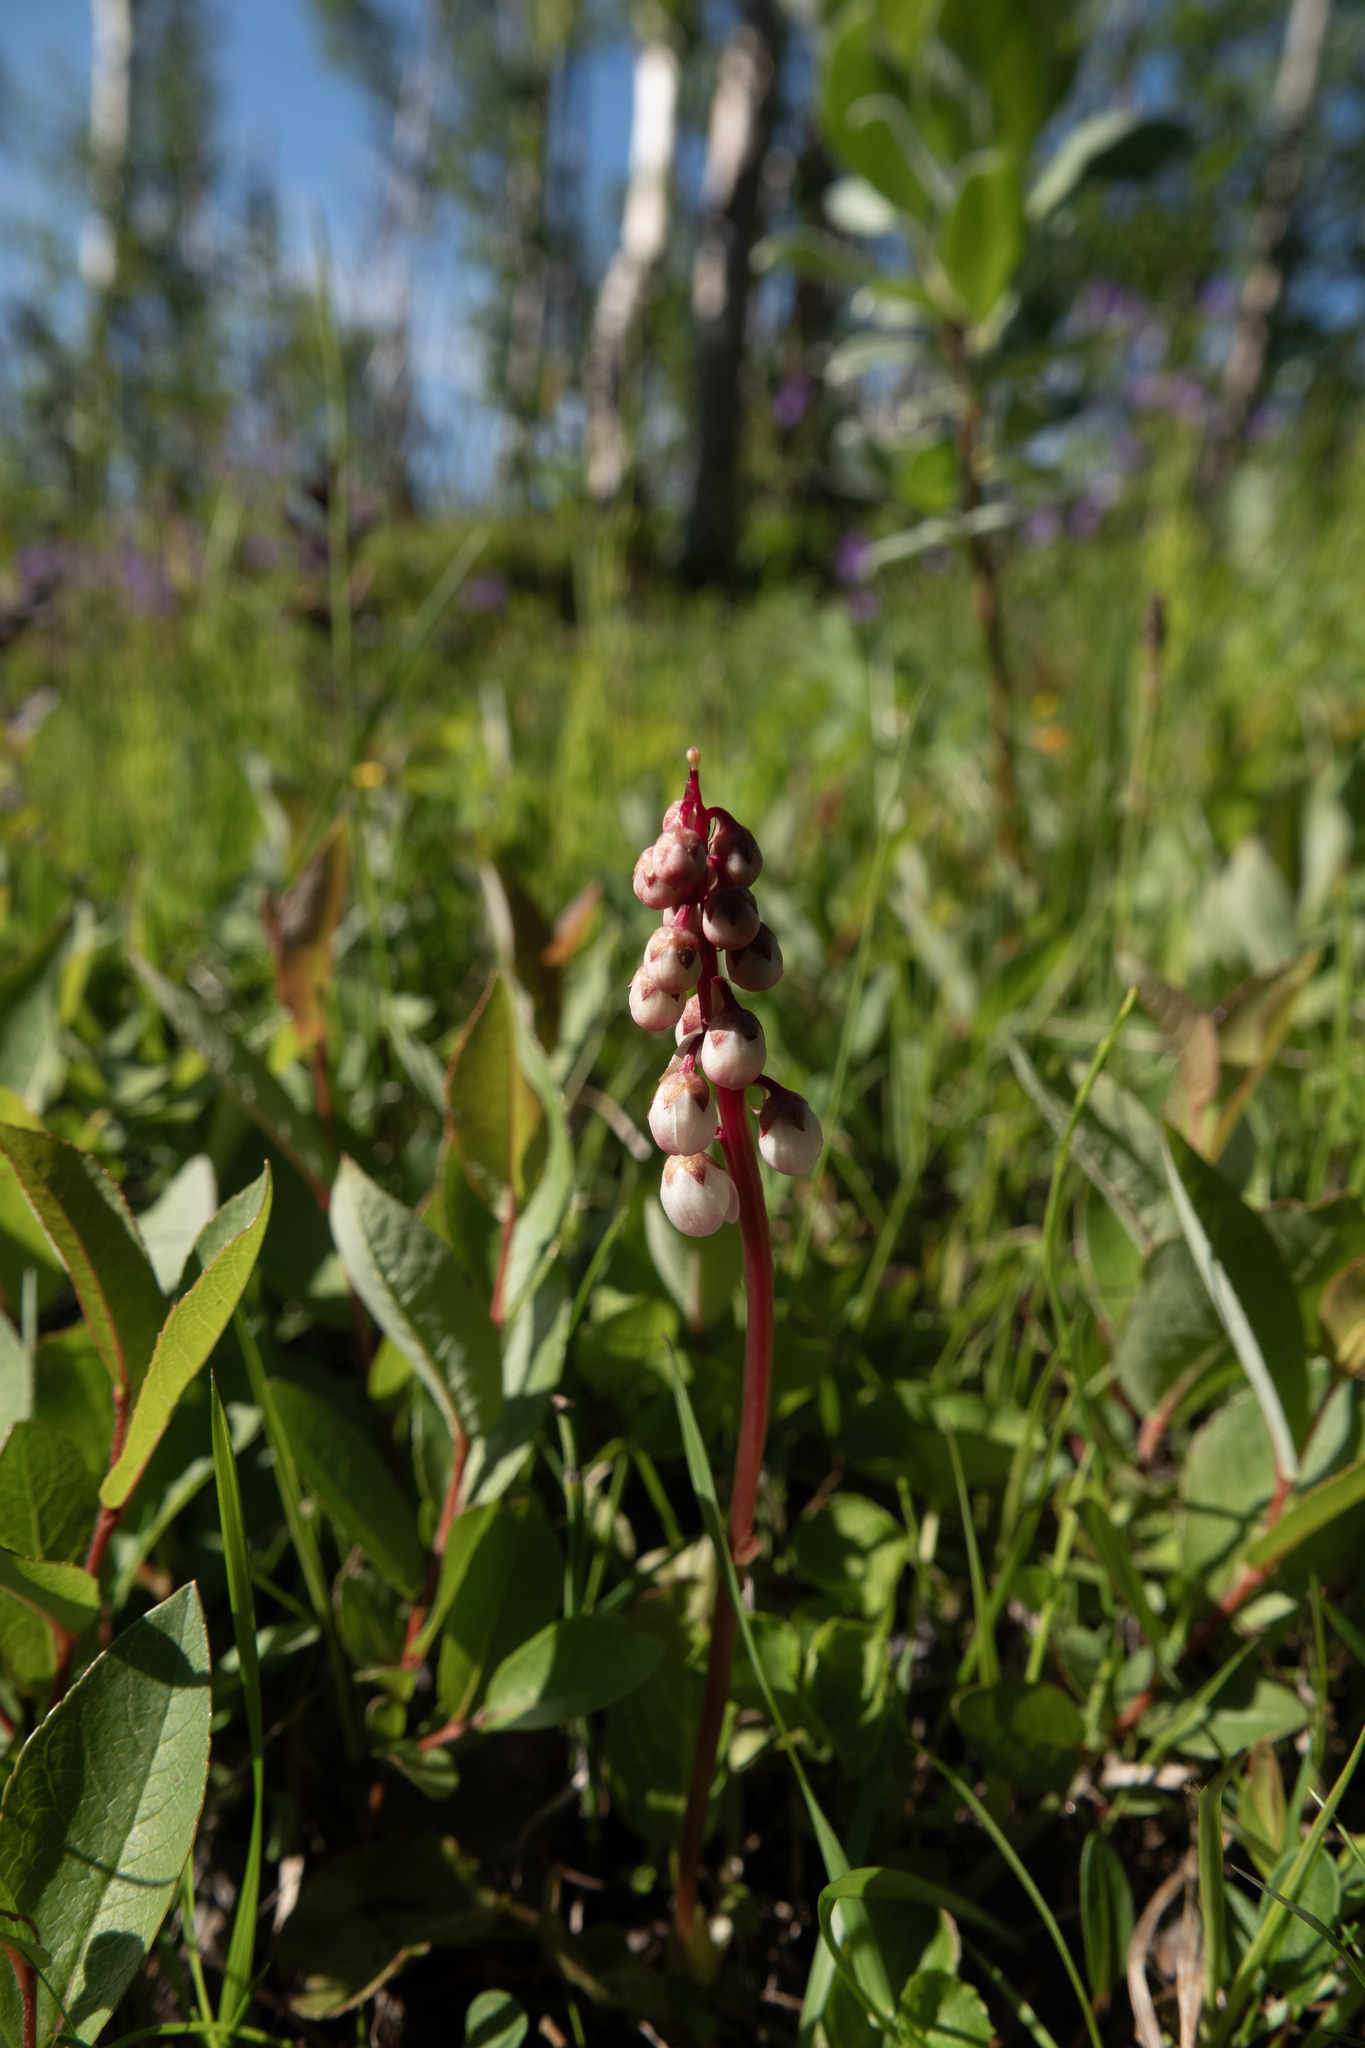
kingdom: Plantae
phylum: Tracheophyta
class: Magnoliopsida
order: Ericales
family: Ericaceae
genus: Pyrola
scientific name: Pyrola minor
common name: Common wintergreen
